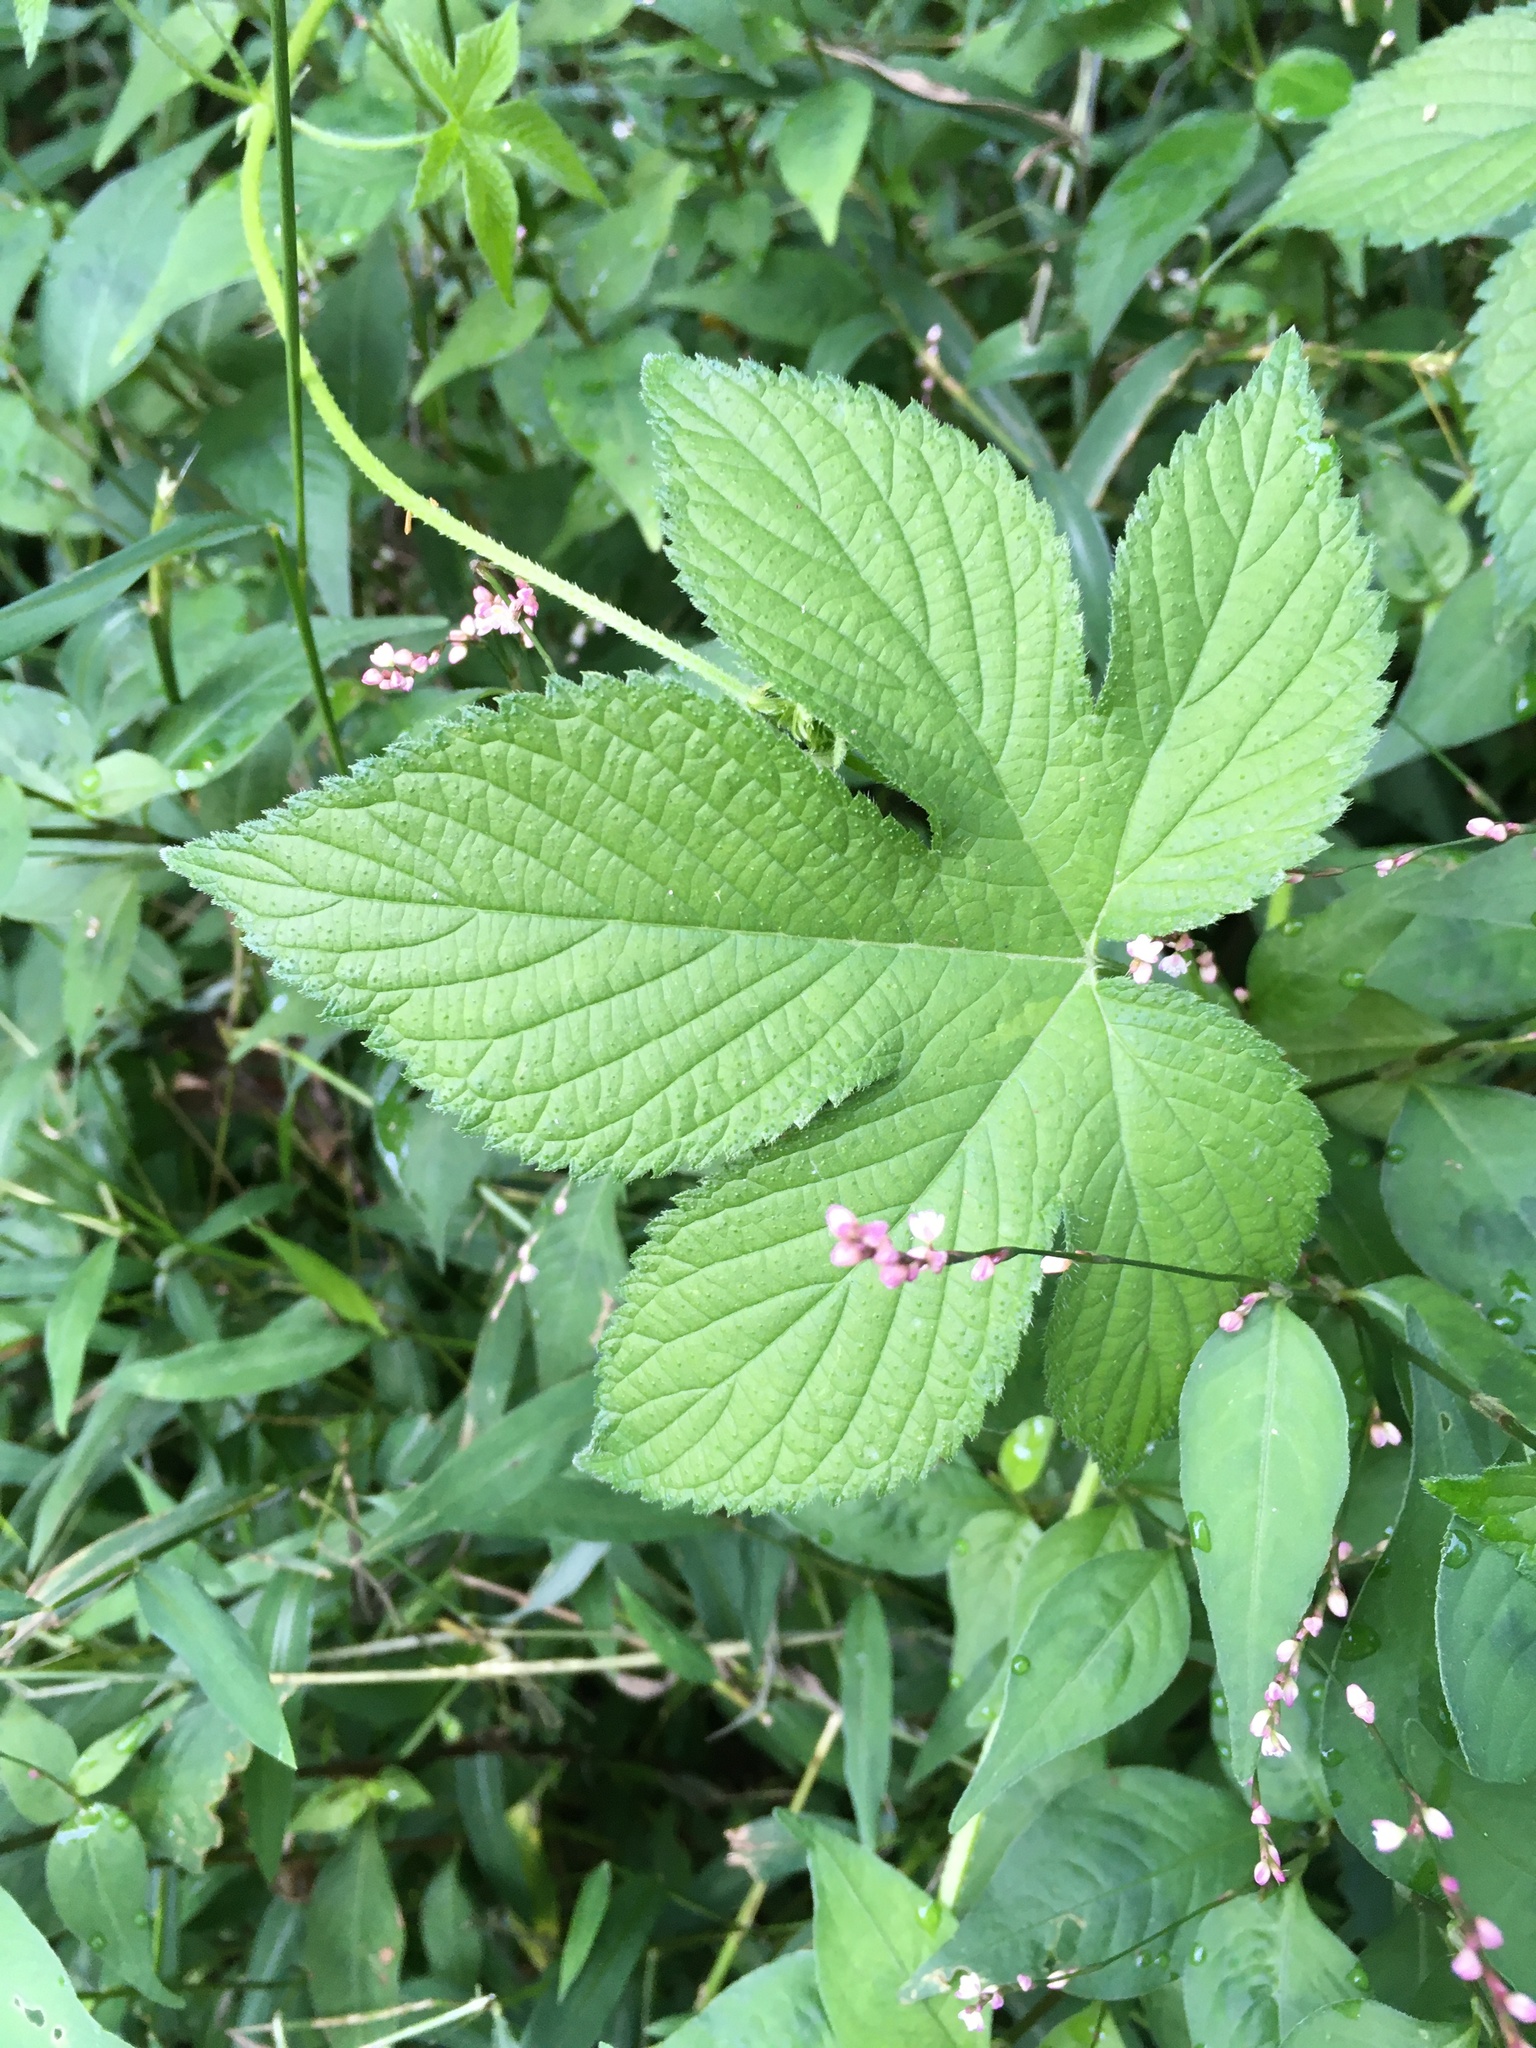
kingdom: Plantae
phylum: Tracheophyta
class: Magnoliopsida
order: Rosales
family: Cannabaceae
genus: Humulus
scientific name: Humulus scandens
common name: Japanese hop
